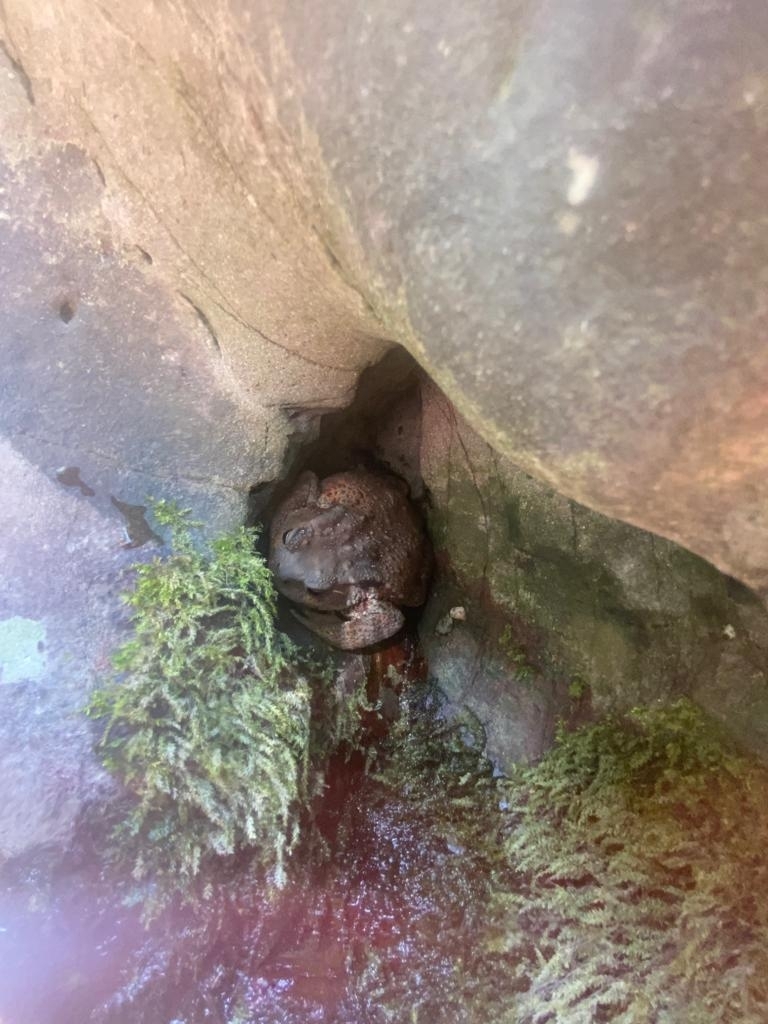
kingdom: Animalia
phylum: Chordata
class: Amphibia
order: Anura
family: Bufonidae
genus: Bufo
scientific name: Bufo bufo
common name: Common toad
